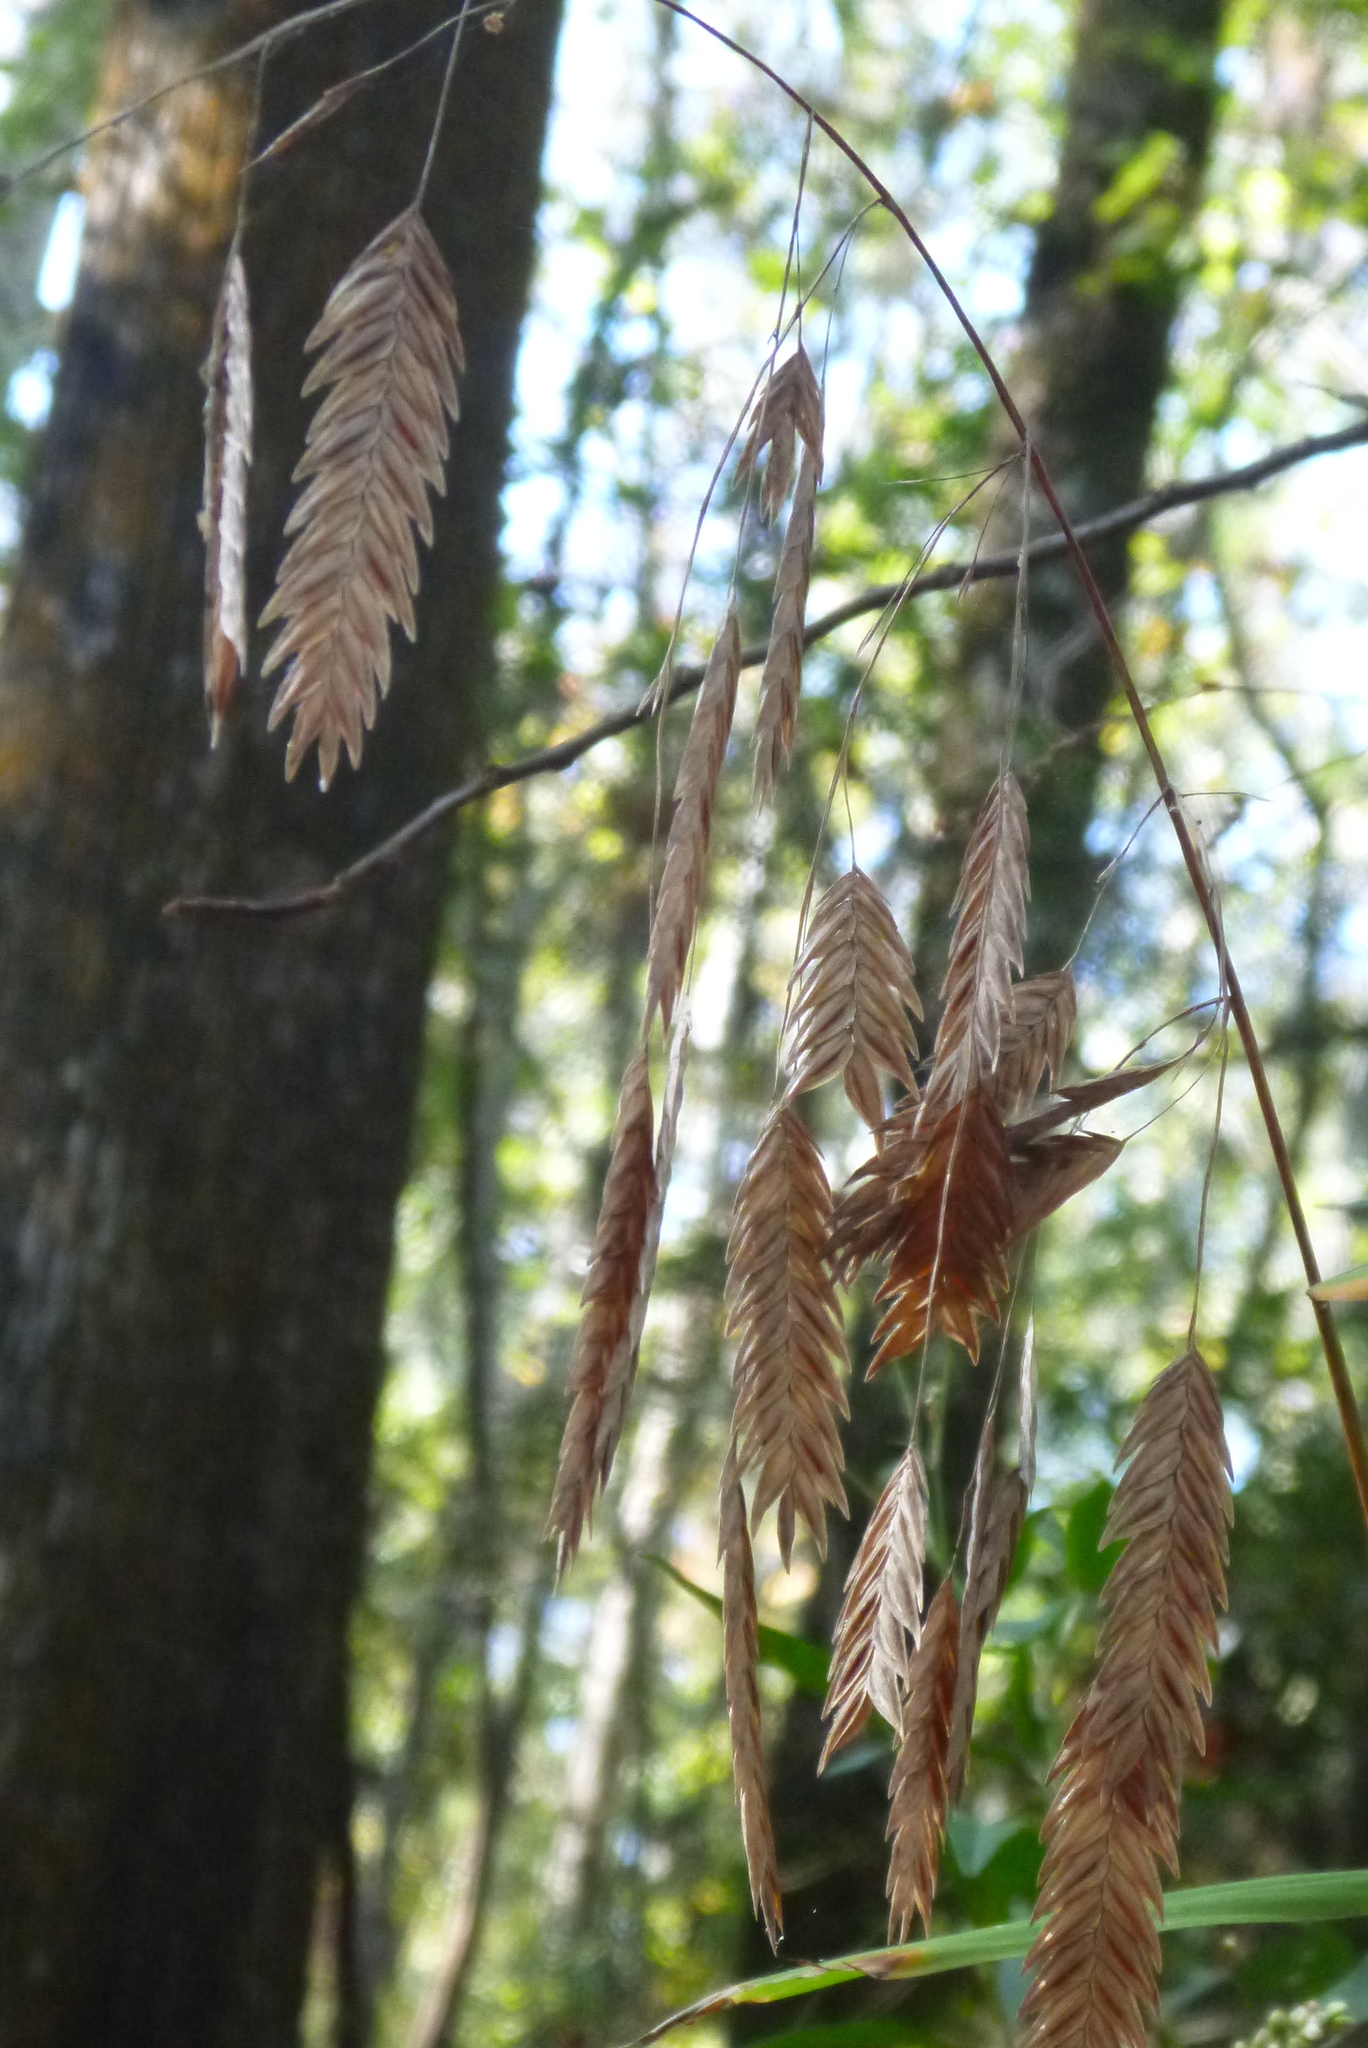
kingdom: Plantae
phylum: Tracheophyta
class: Liliopsida
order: Poales
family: Poaceae
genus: Chasmanthium
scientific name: Chasmanthium latifolium
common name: Broad-leaved chasmanthium
